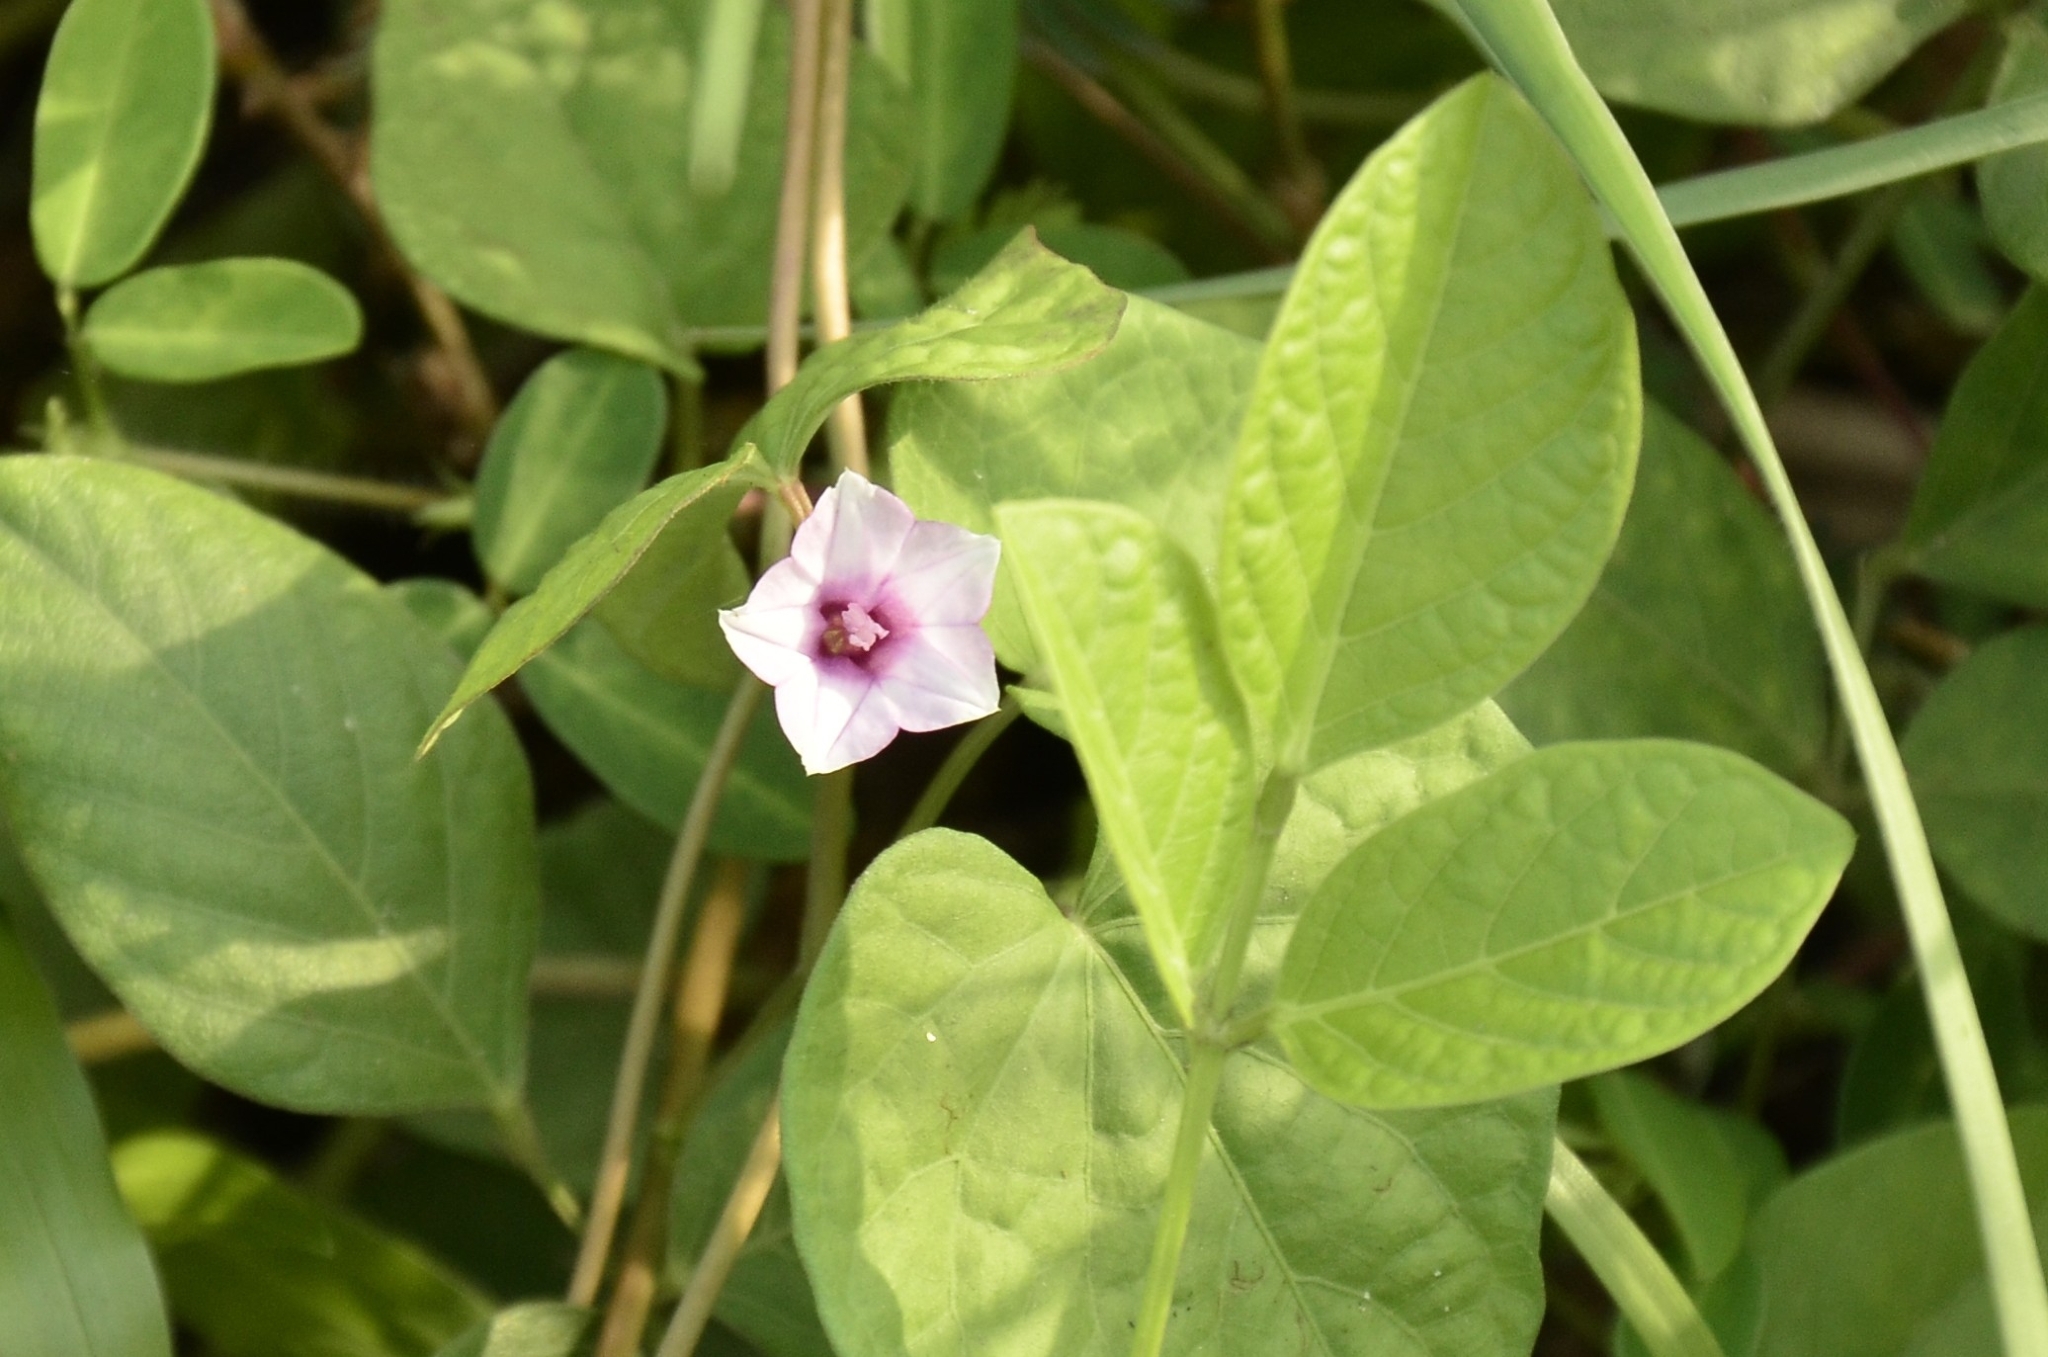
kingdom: Plantae
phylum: Tracheophyta
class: Magnoliopsida
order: Solanales
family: Convolvulaceae
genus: Ipomoea
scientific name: Ipomoea triloba
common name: Little-bell
